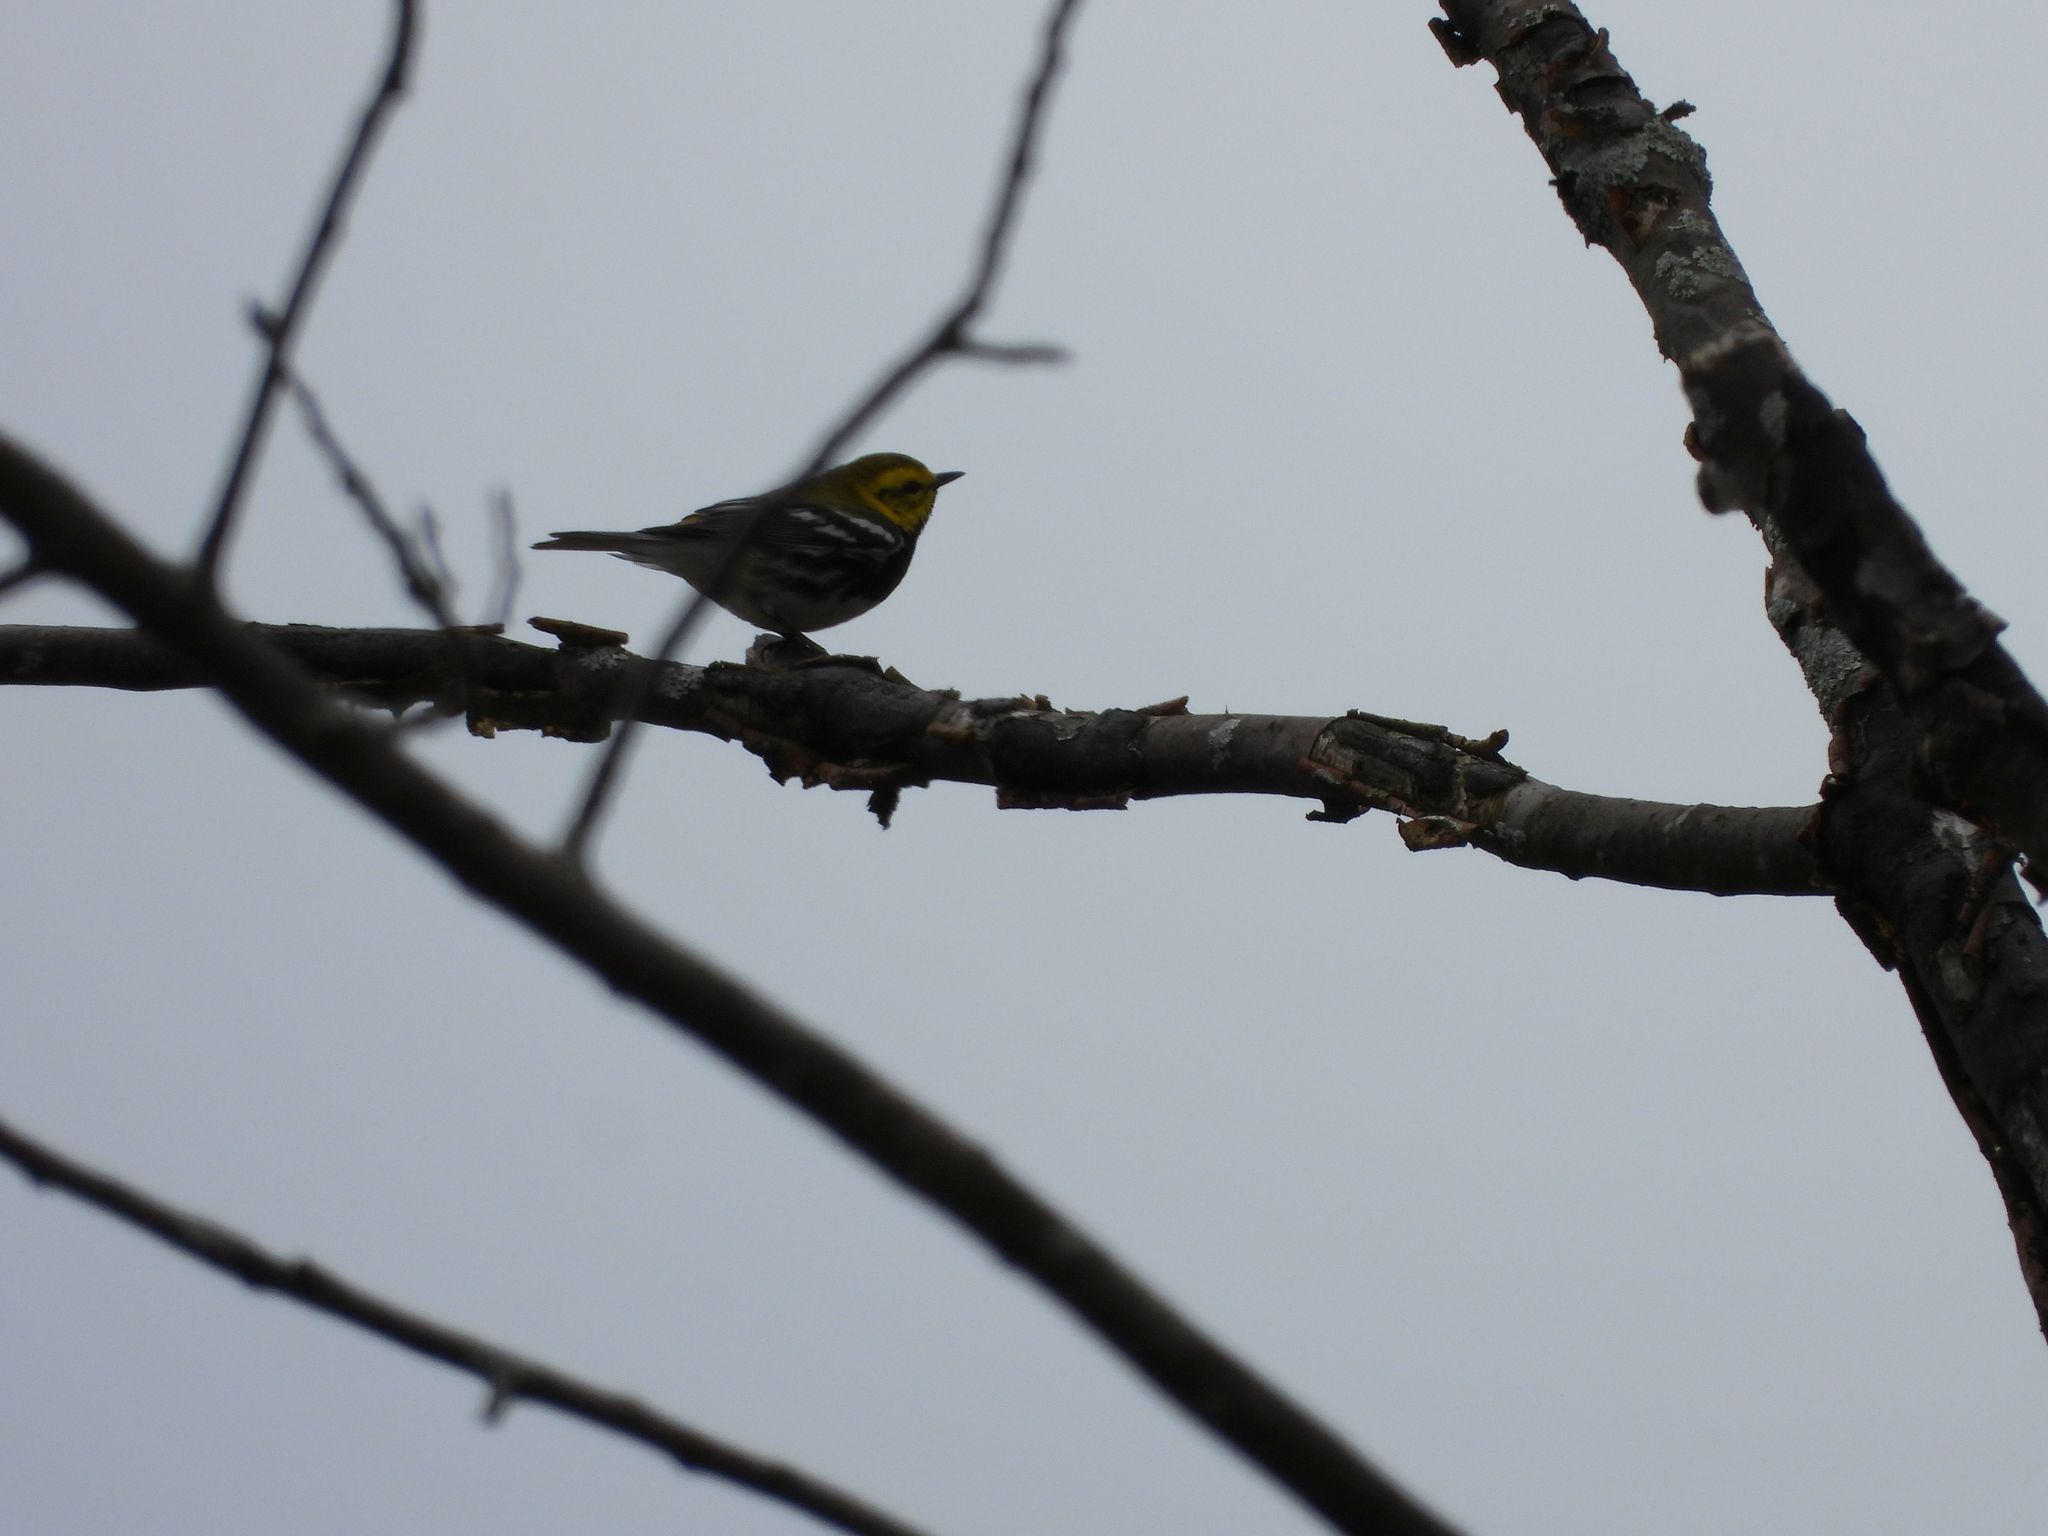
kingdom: Animalia
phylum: Chordata
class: Aves
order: Passeriformes
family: Parulidae
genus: Setophaga
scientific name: Setophaga virens
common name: Black-throated green warbler
